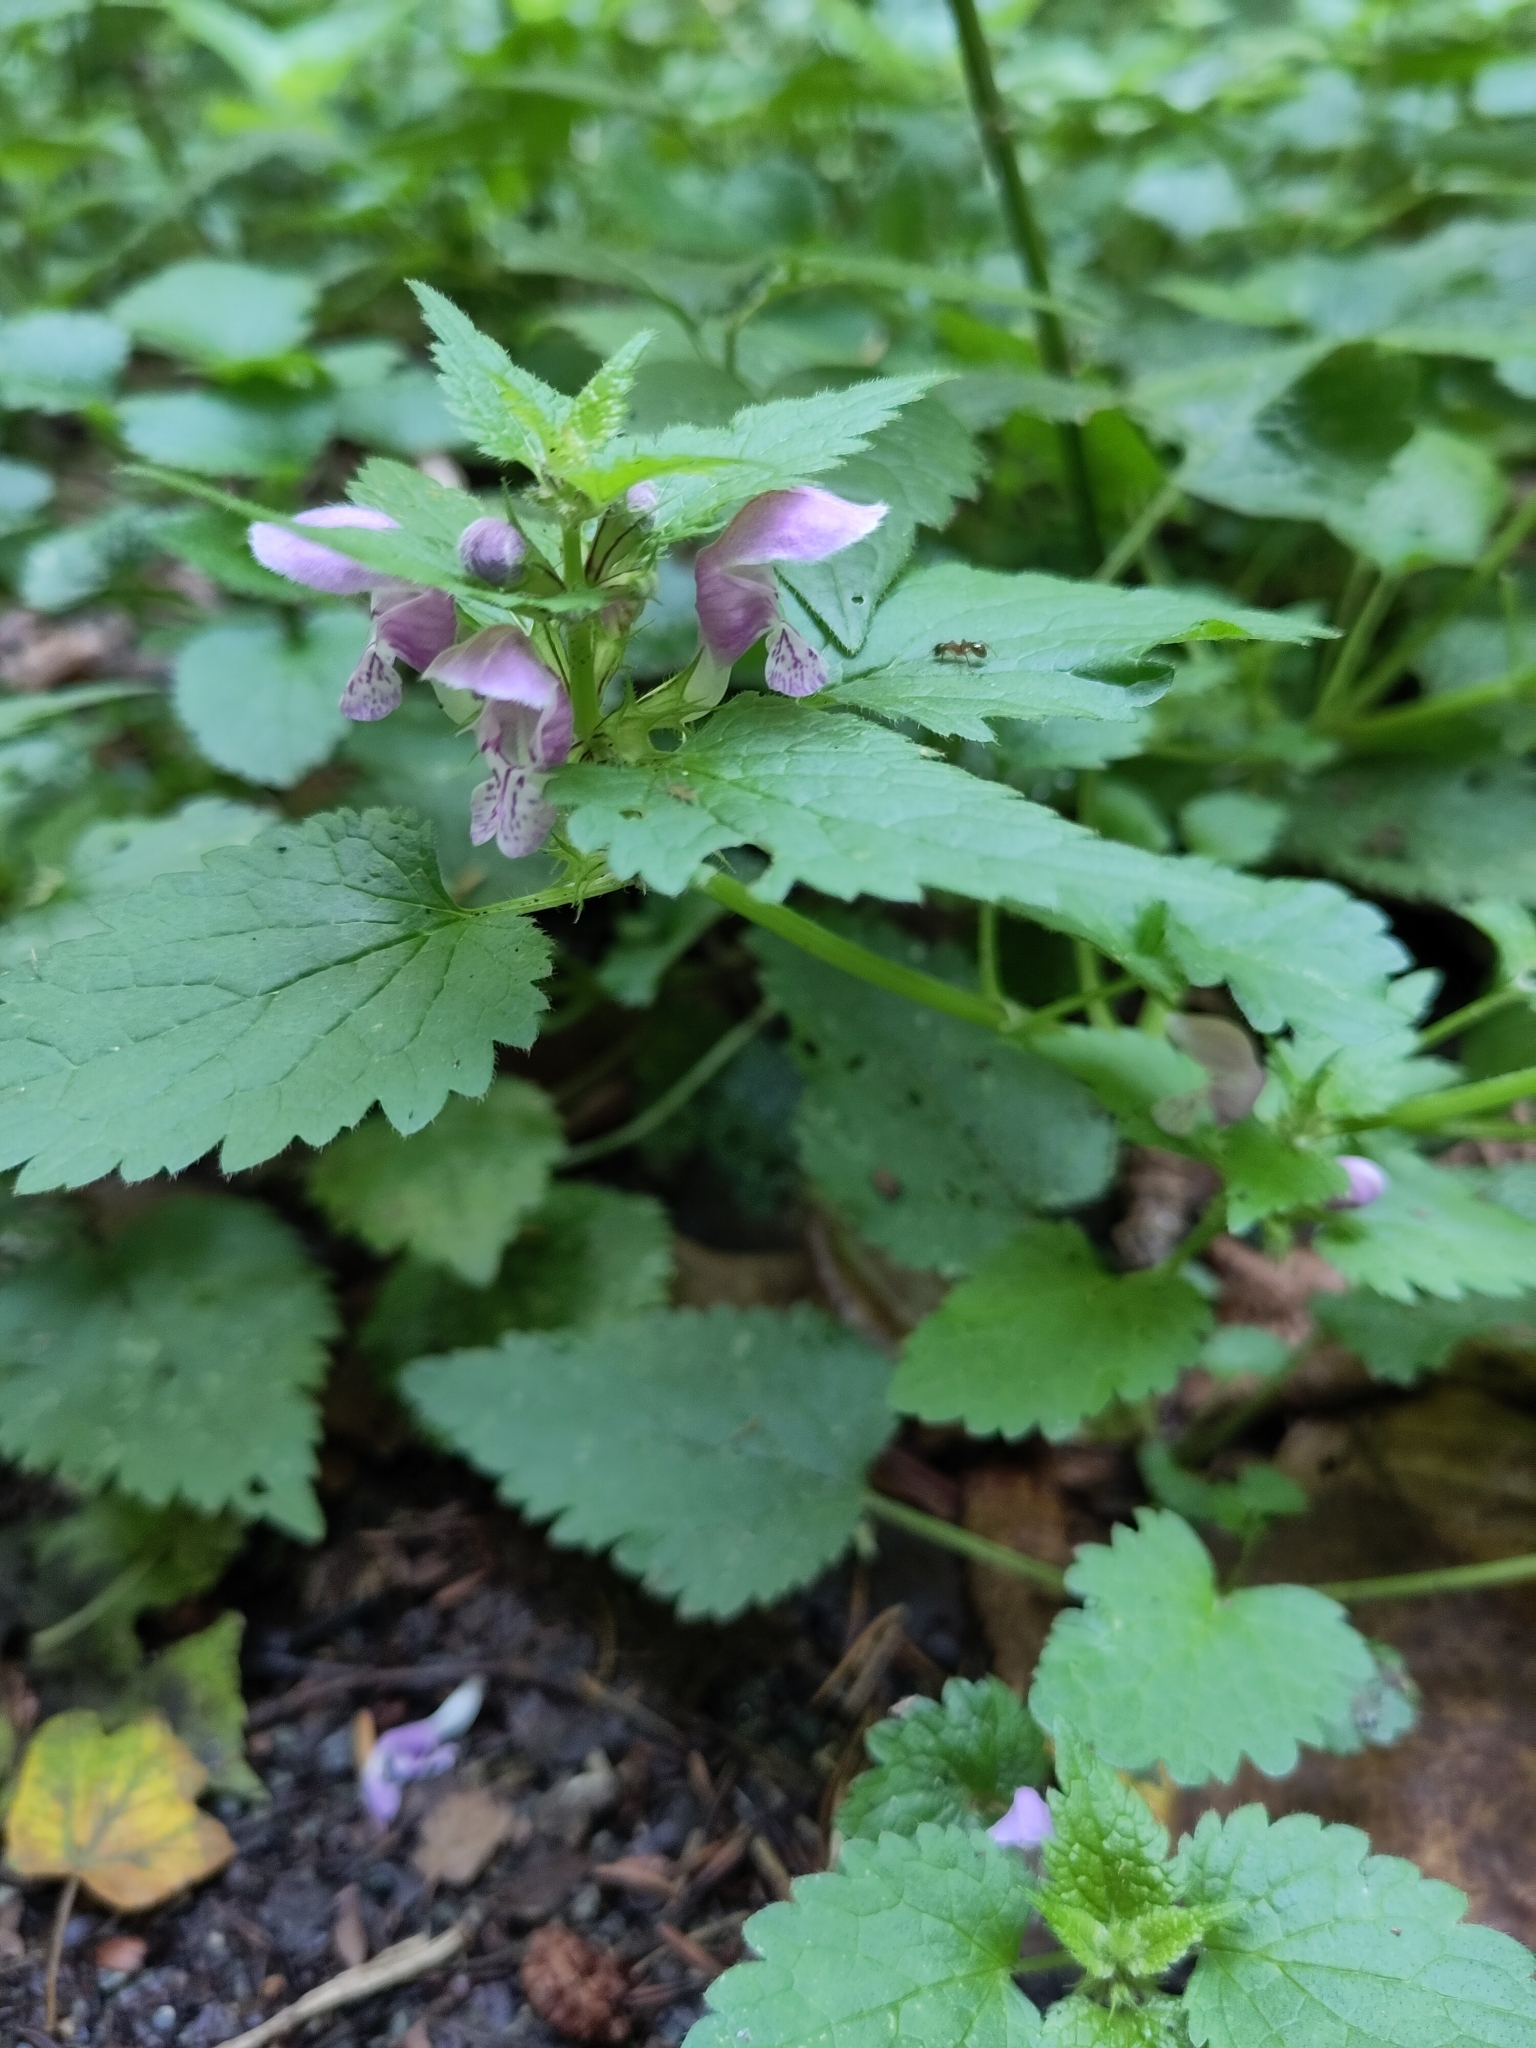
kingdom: Plantae
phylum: Tracheophyta
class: Magnoliopsida
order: Lamiales
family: Lamiaceae
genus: Lamium
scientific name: Lamium maculatum
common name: Spotted dead-nettle
